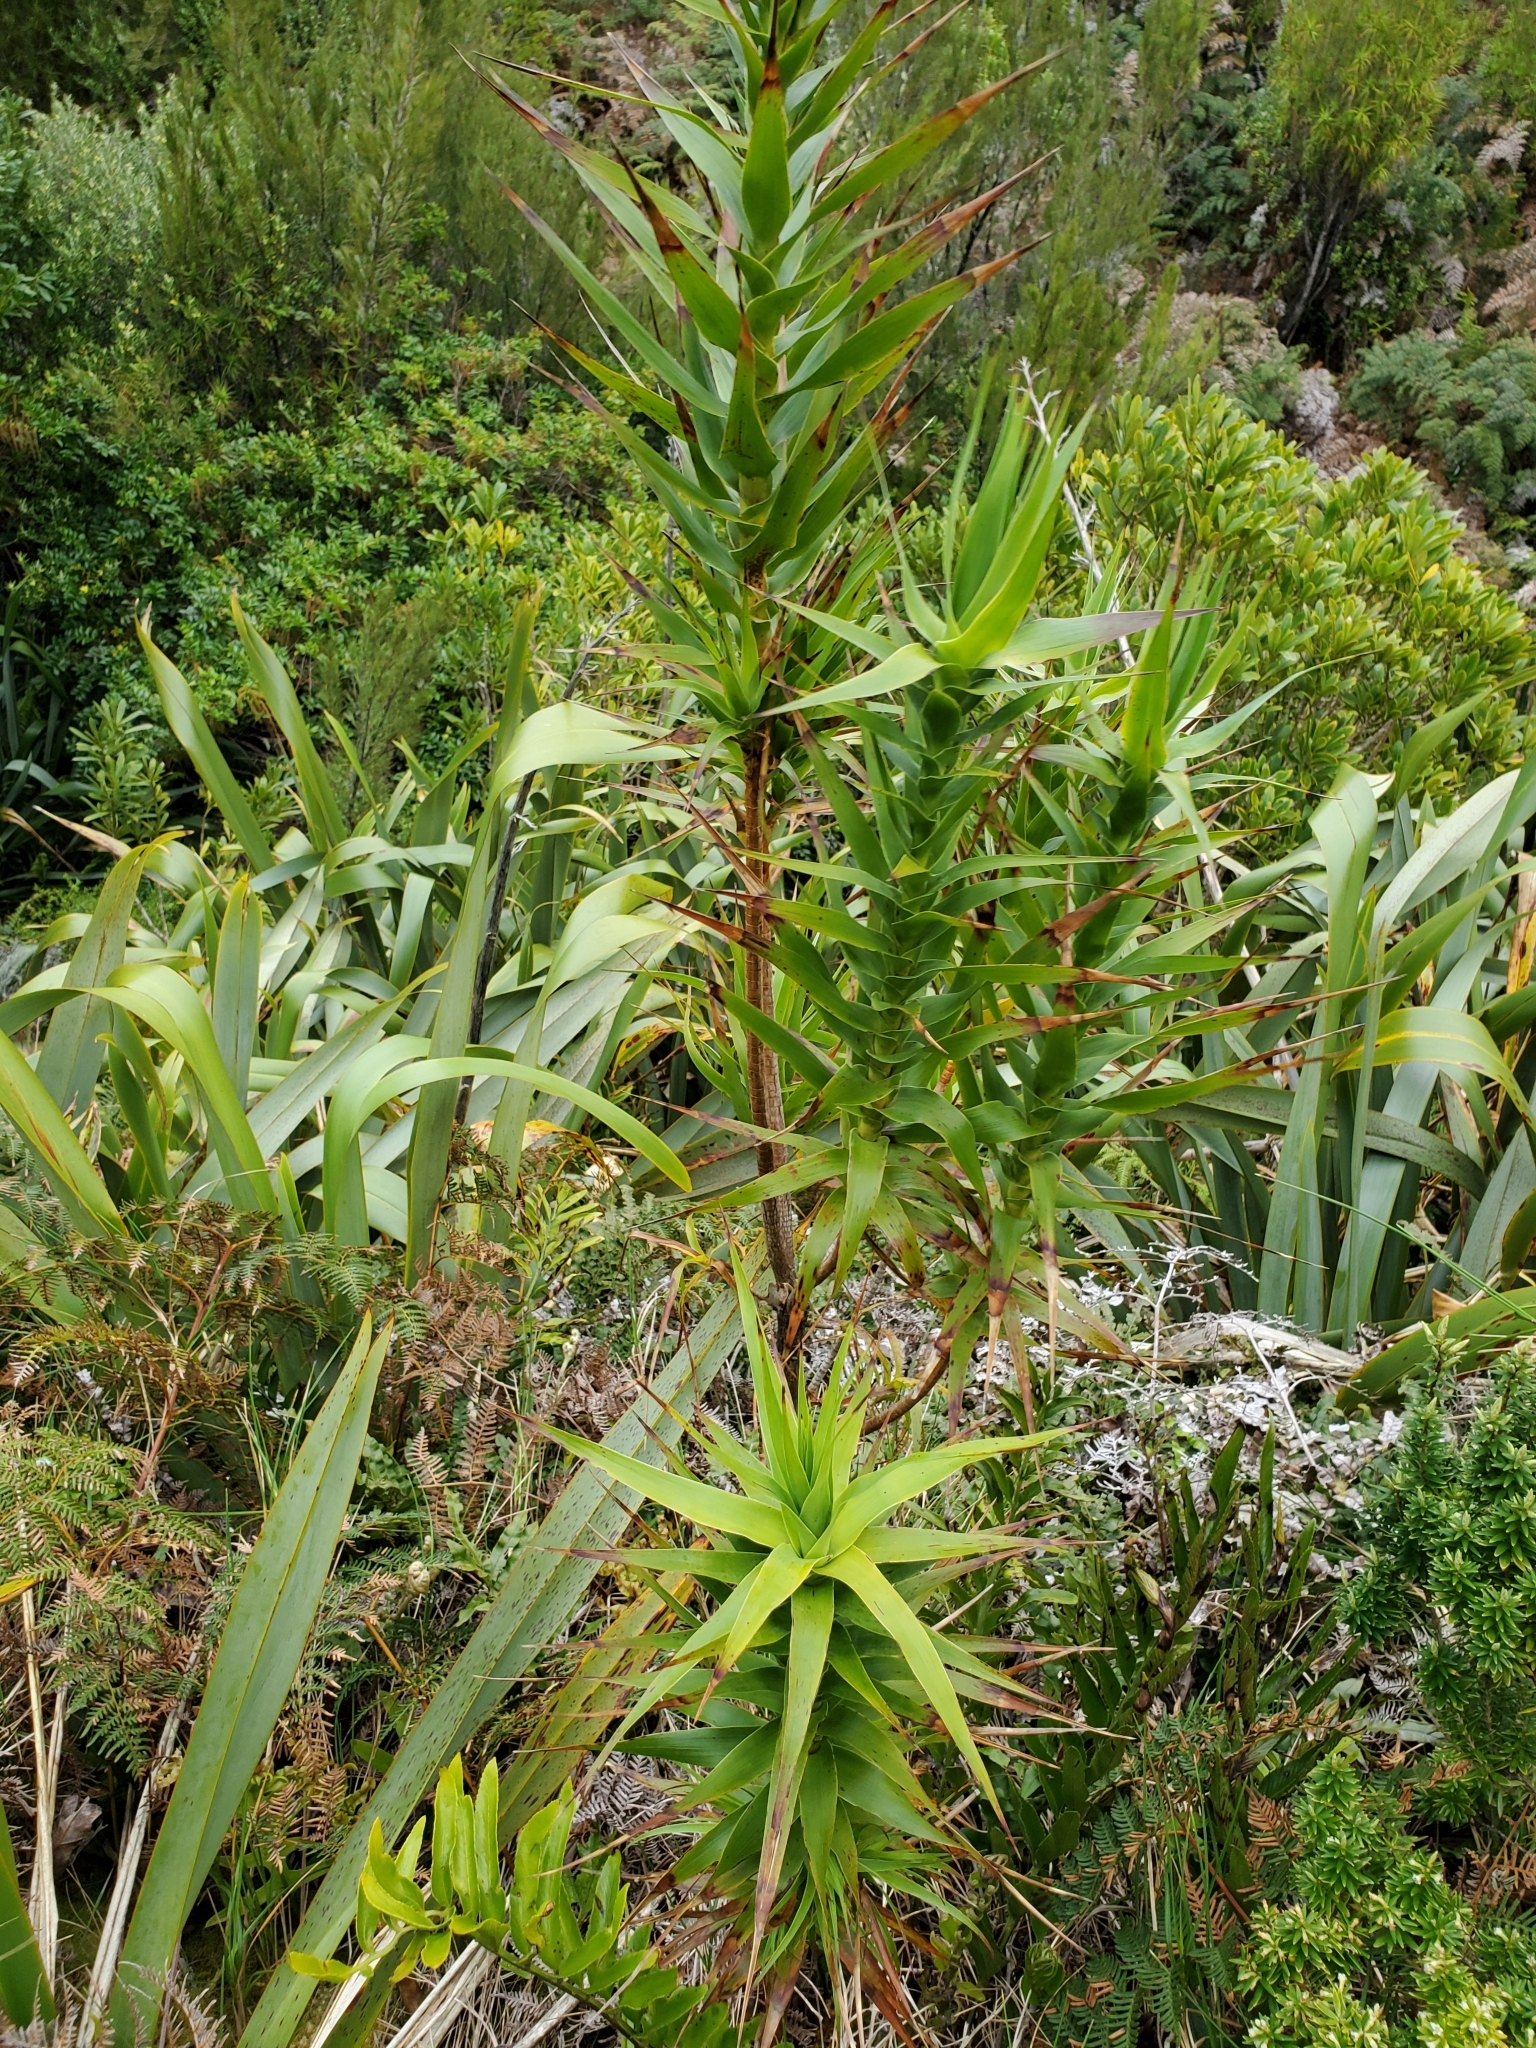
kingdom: Plantae
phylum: Tracheophyta
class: Magnoliopsida
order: Ericales
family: Ericaceae
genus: Dracophyllum
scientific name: Dracophyllum arboreum
